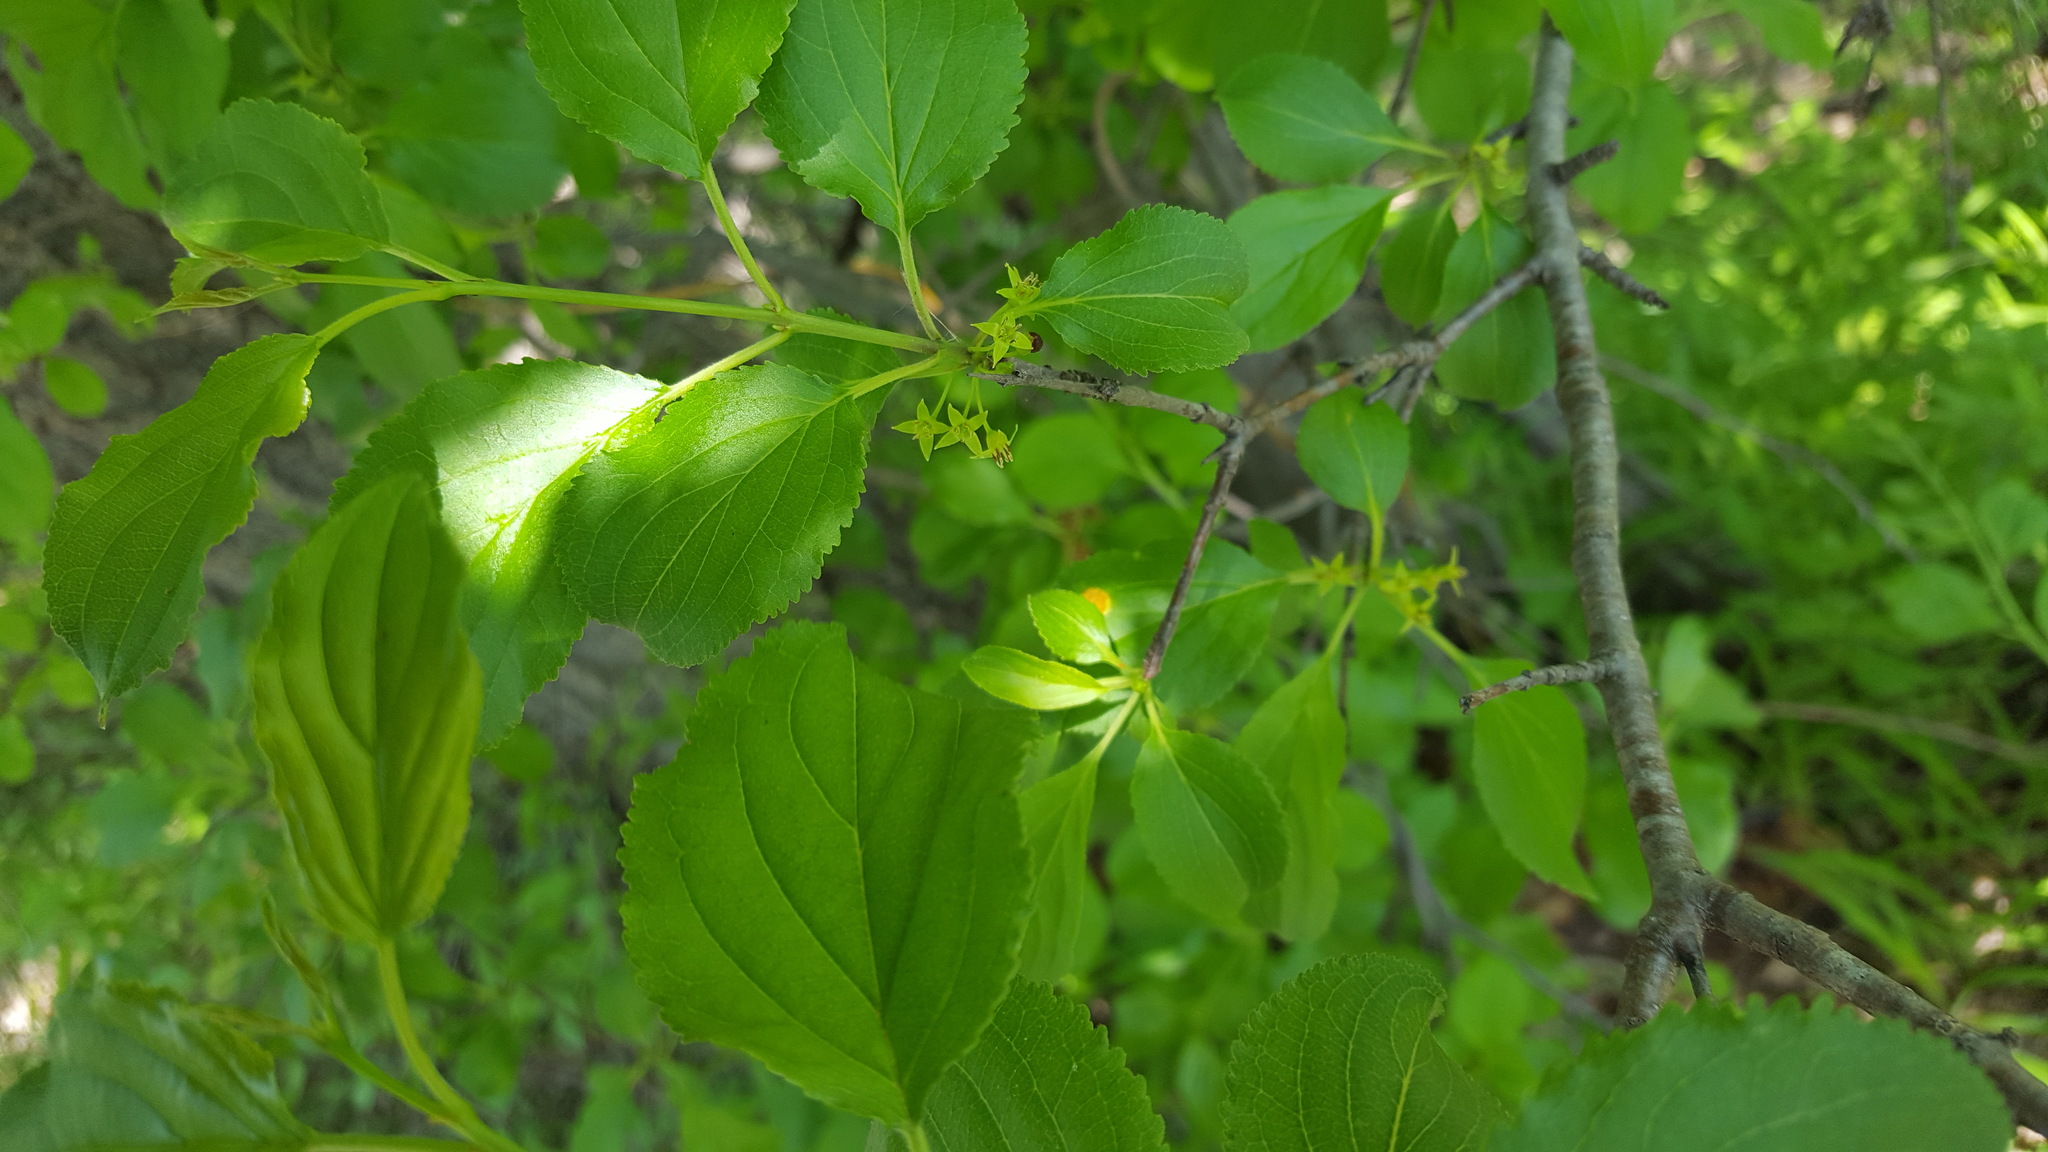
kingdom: Plantae
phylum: Tracheophyta
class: Magnoliopsida
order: Rosales
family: Rhamnaceae
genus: Rhamnus
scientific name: Rhamnus cathartica
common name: Common buckthorn
